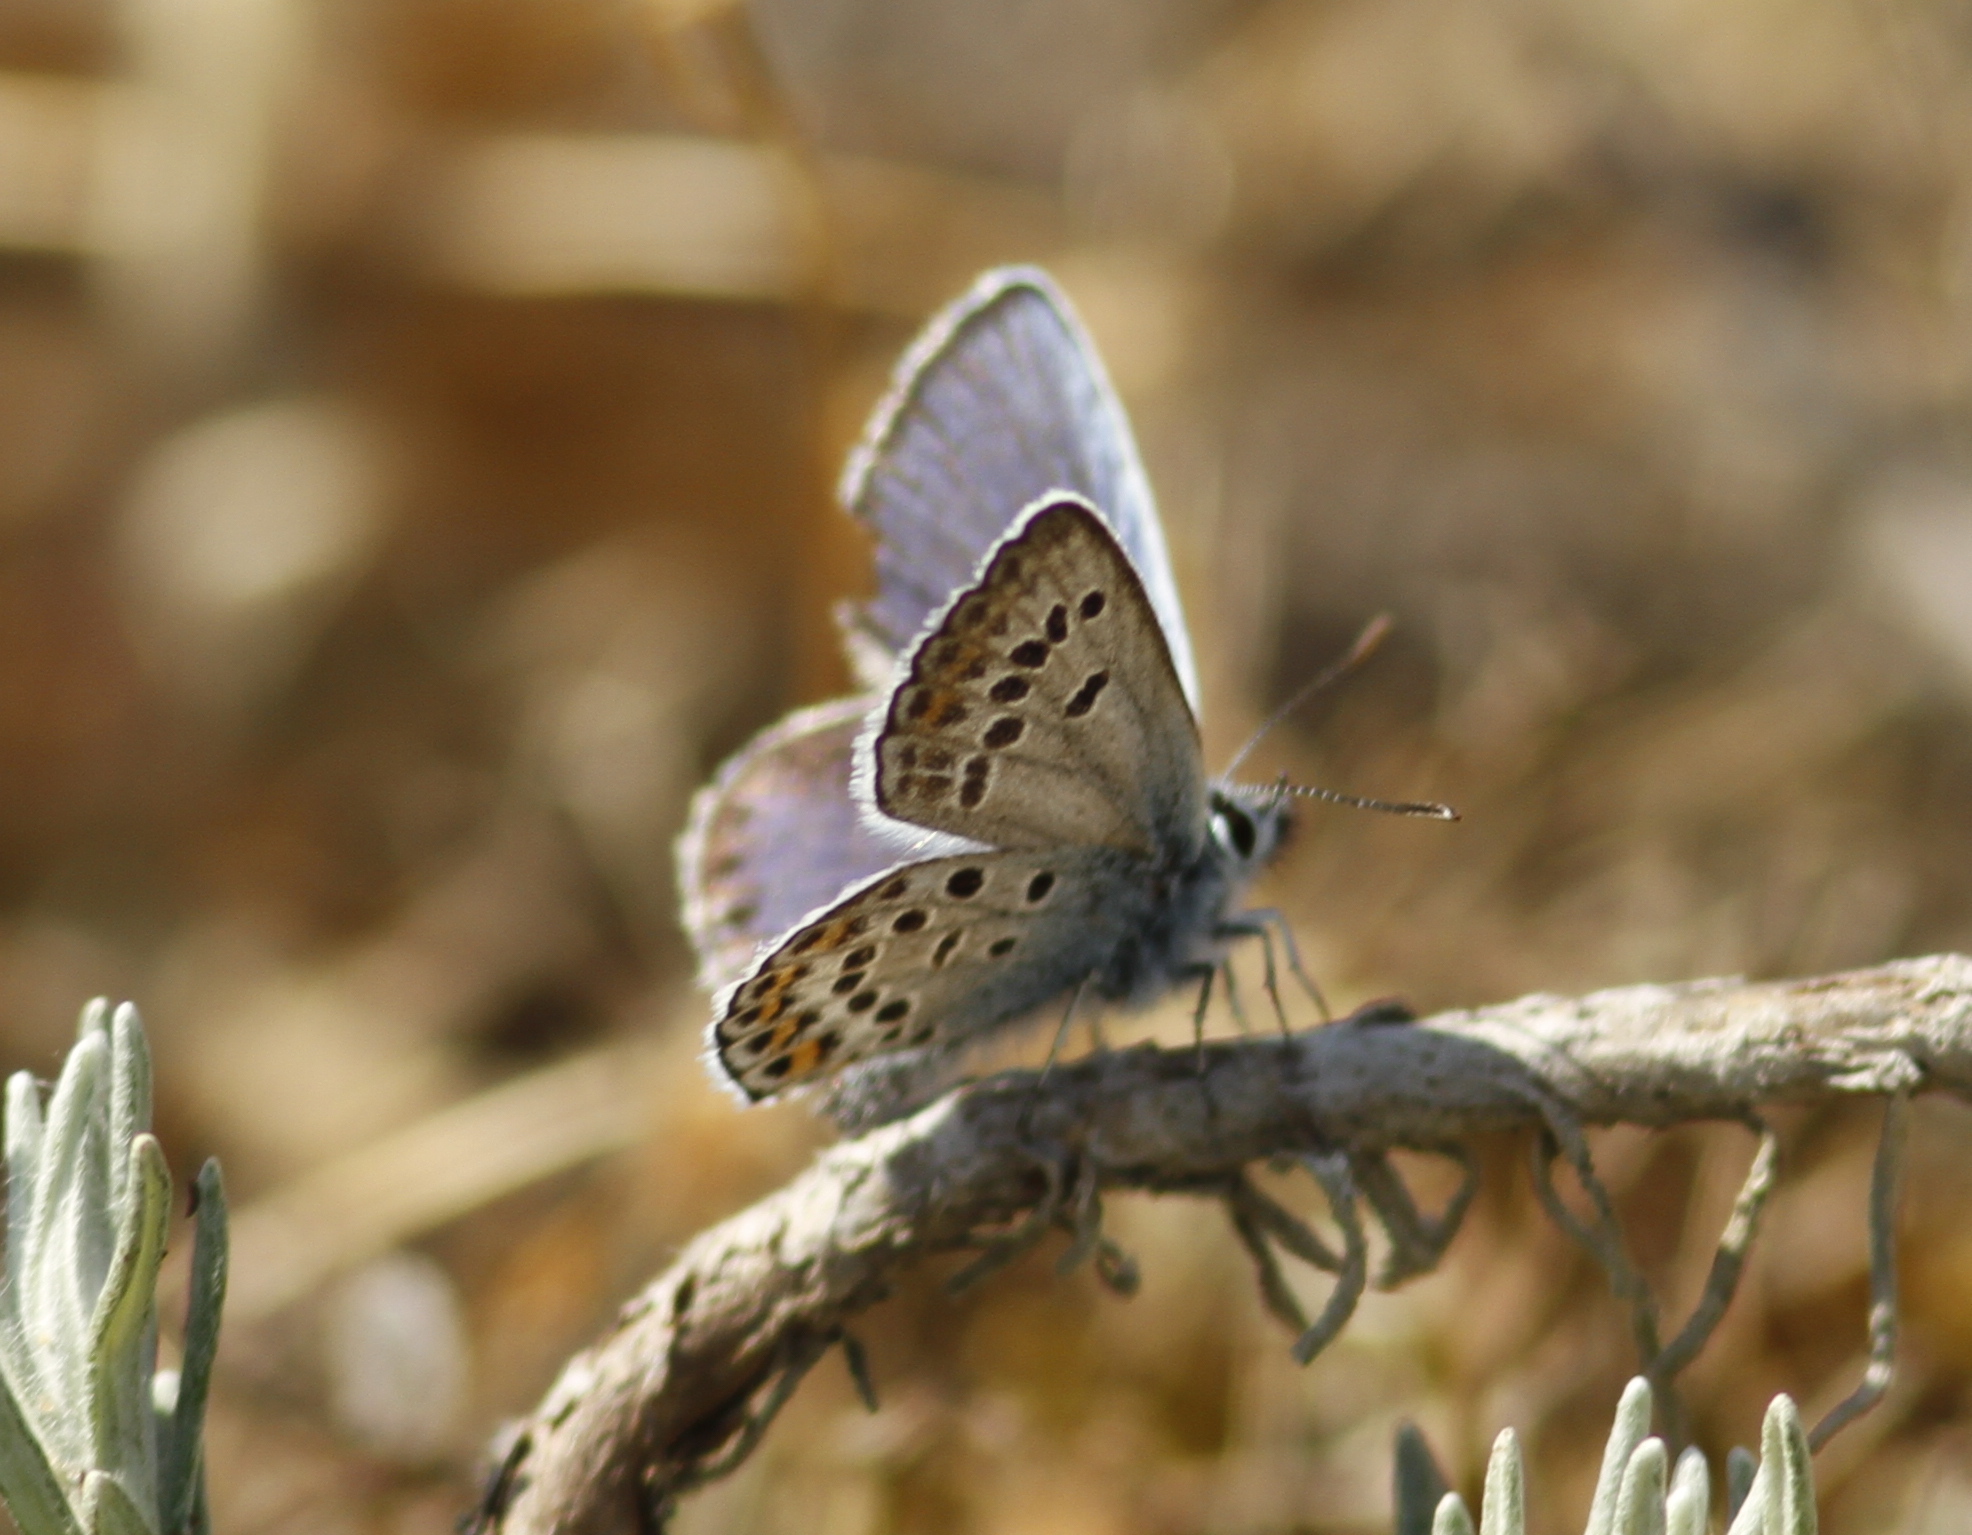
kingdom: Animalia
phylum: Arthropoda
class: Insecta
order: Lepidoptera
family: Lycaenidae
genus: Plebejus
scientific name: Plebejus argus
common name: Silver-studded blue
